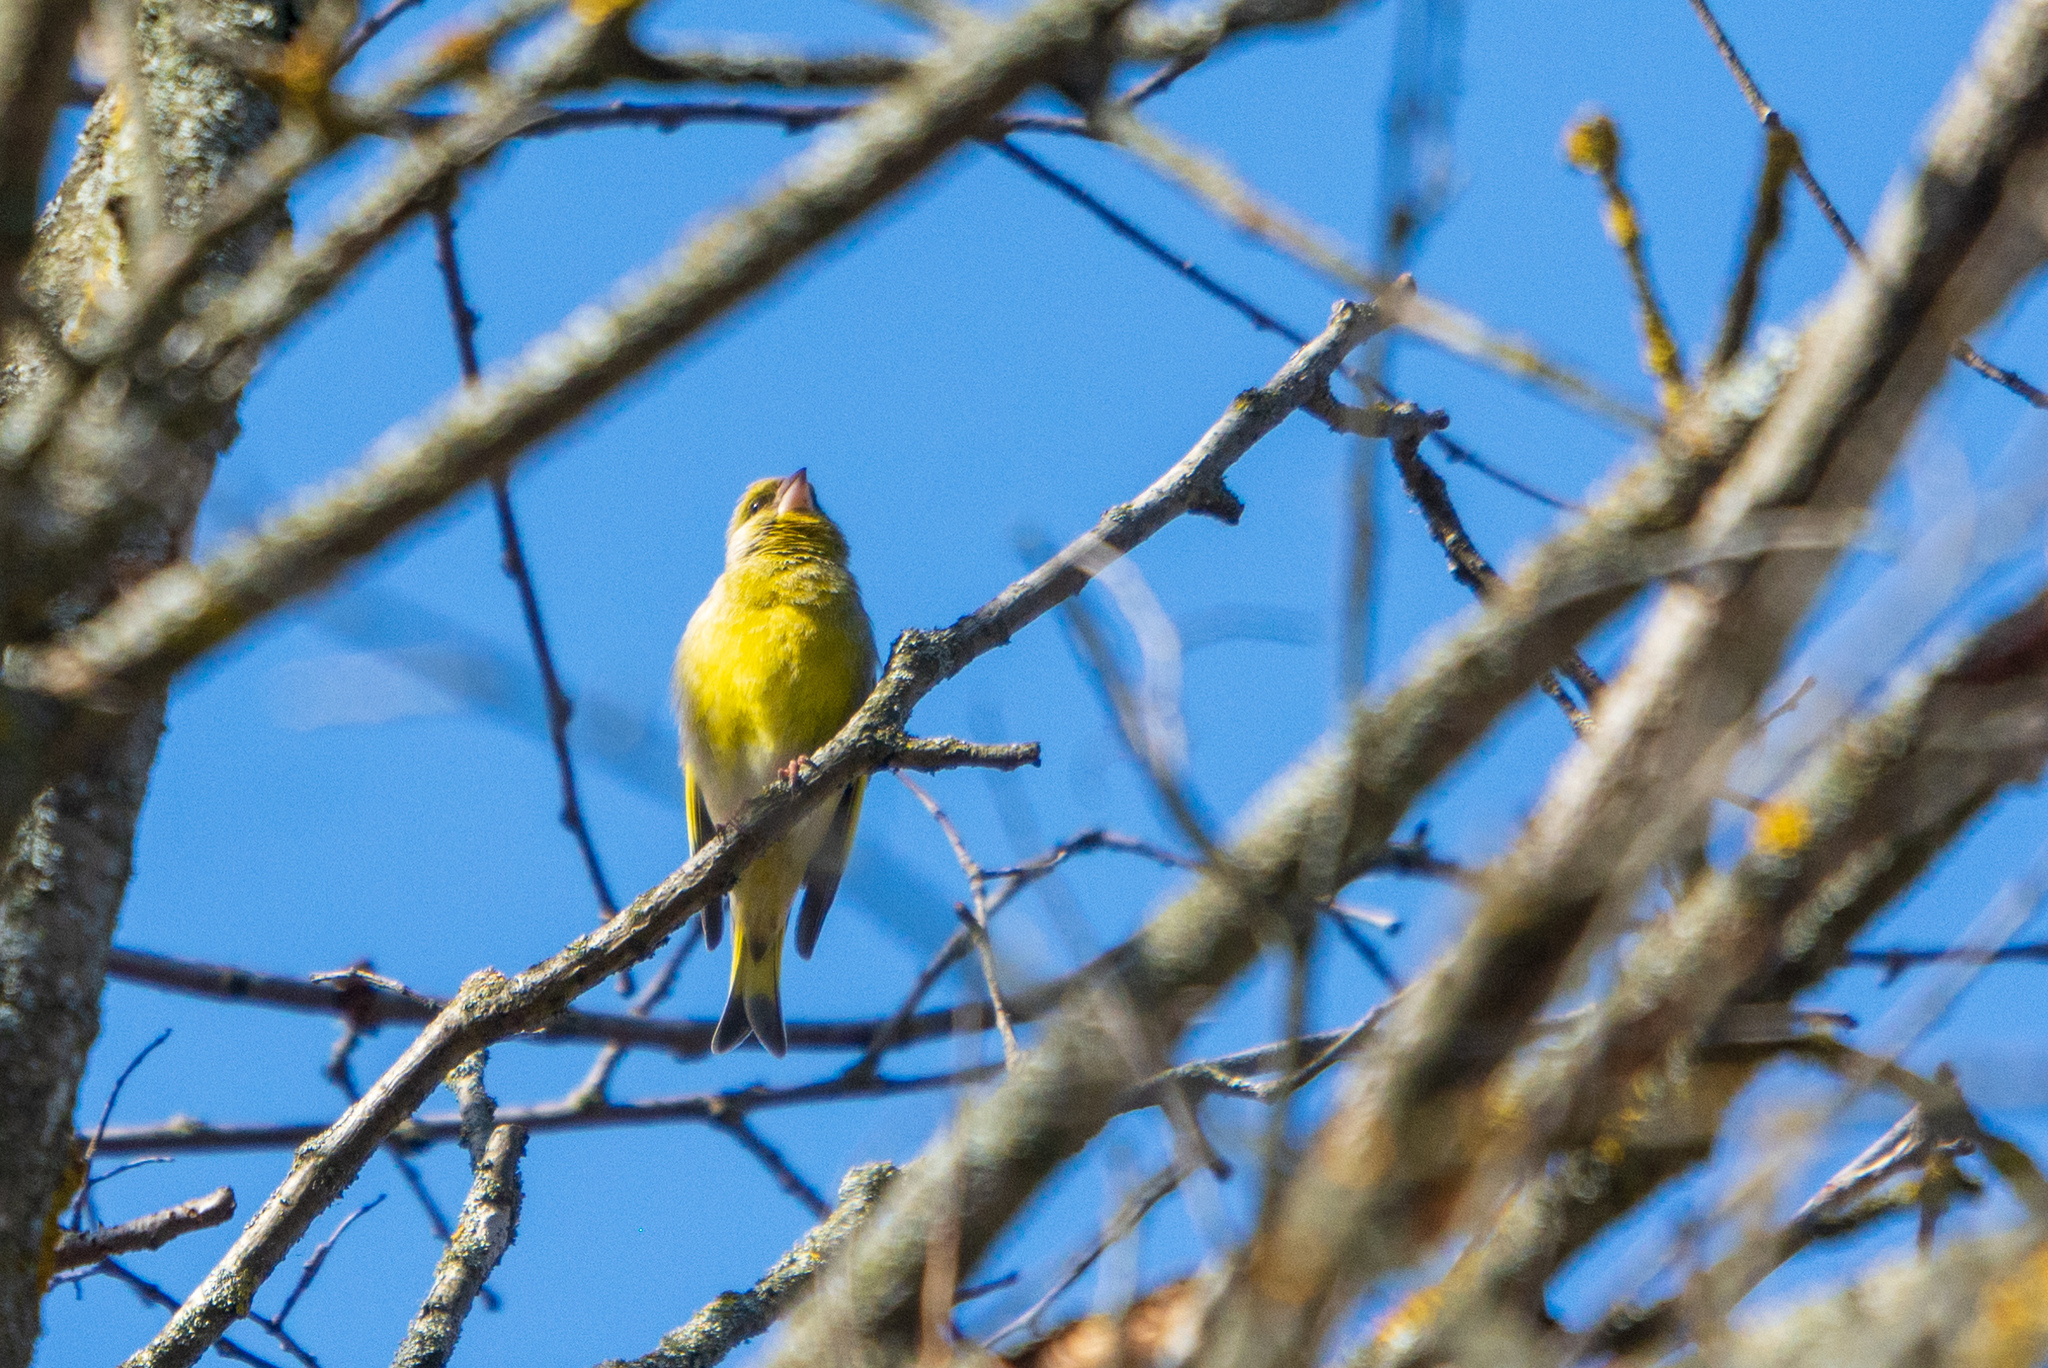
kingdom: Plantae
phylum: Tracheophyta
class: Liliopsida
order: Poales
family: Poaceae
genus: Chloris
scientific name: Chloris chloris
